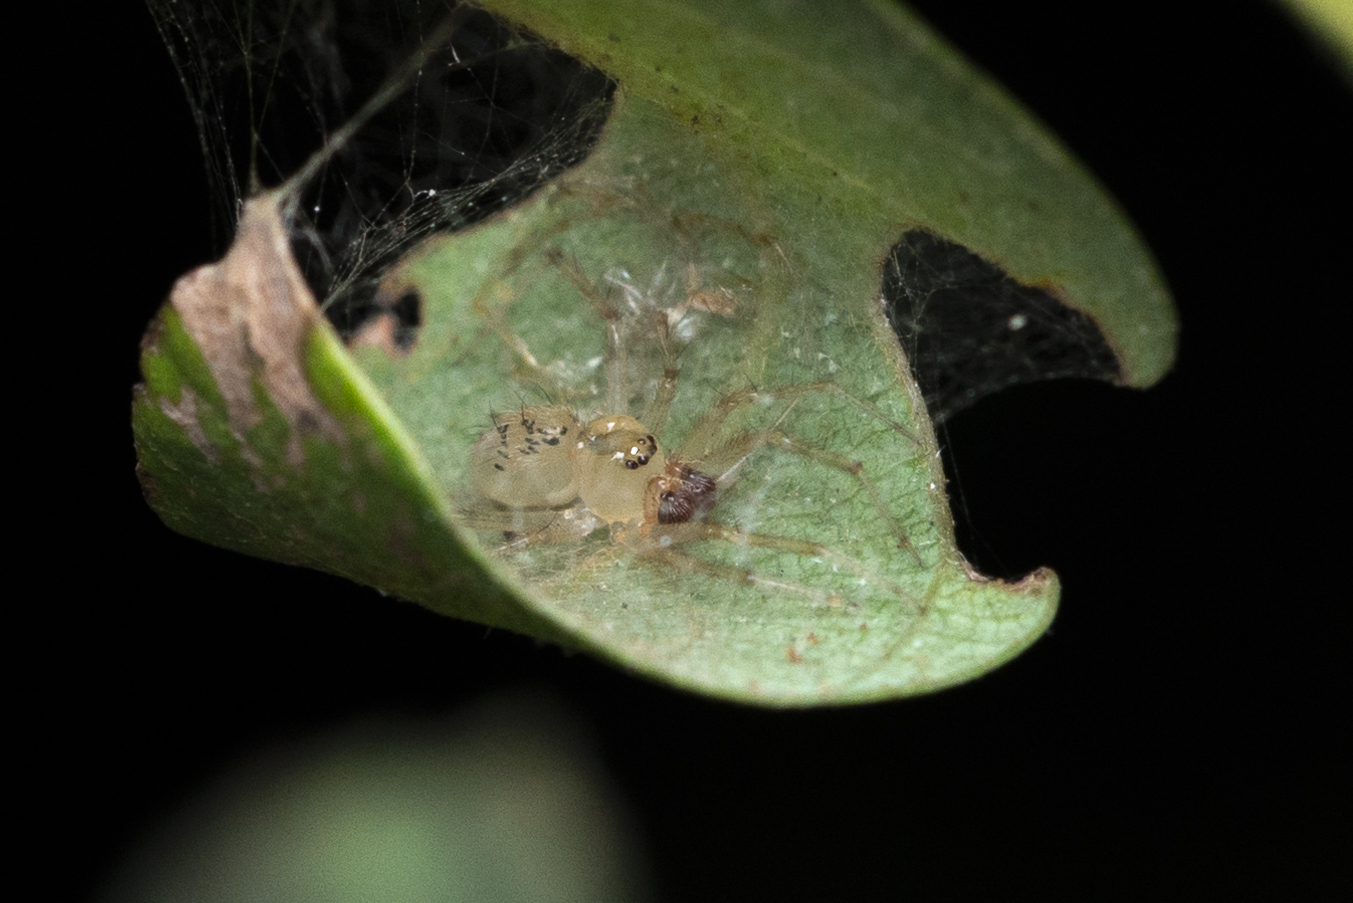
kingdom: Animalia
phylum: Arthropoda
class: Arachnida
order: Araneae
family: Theridiidae
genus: Phycosoma
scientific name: Phycosoma digitula
